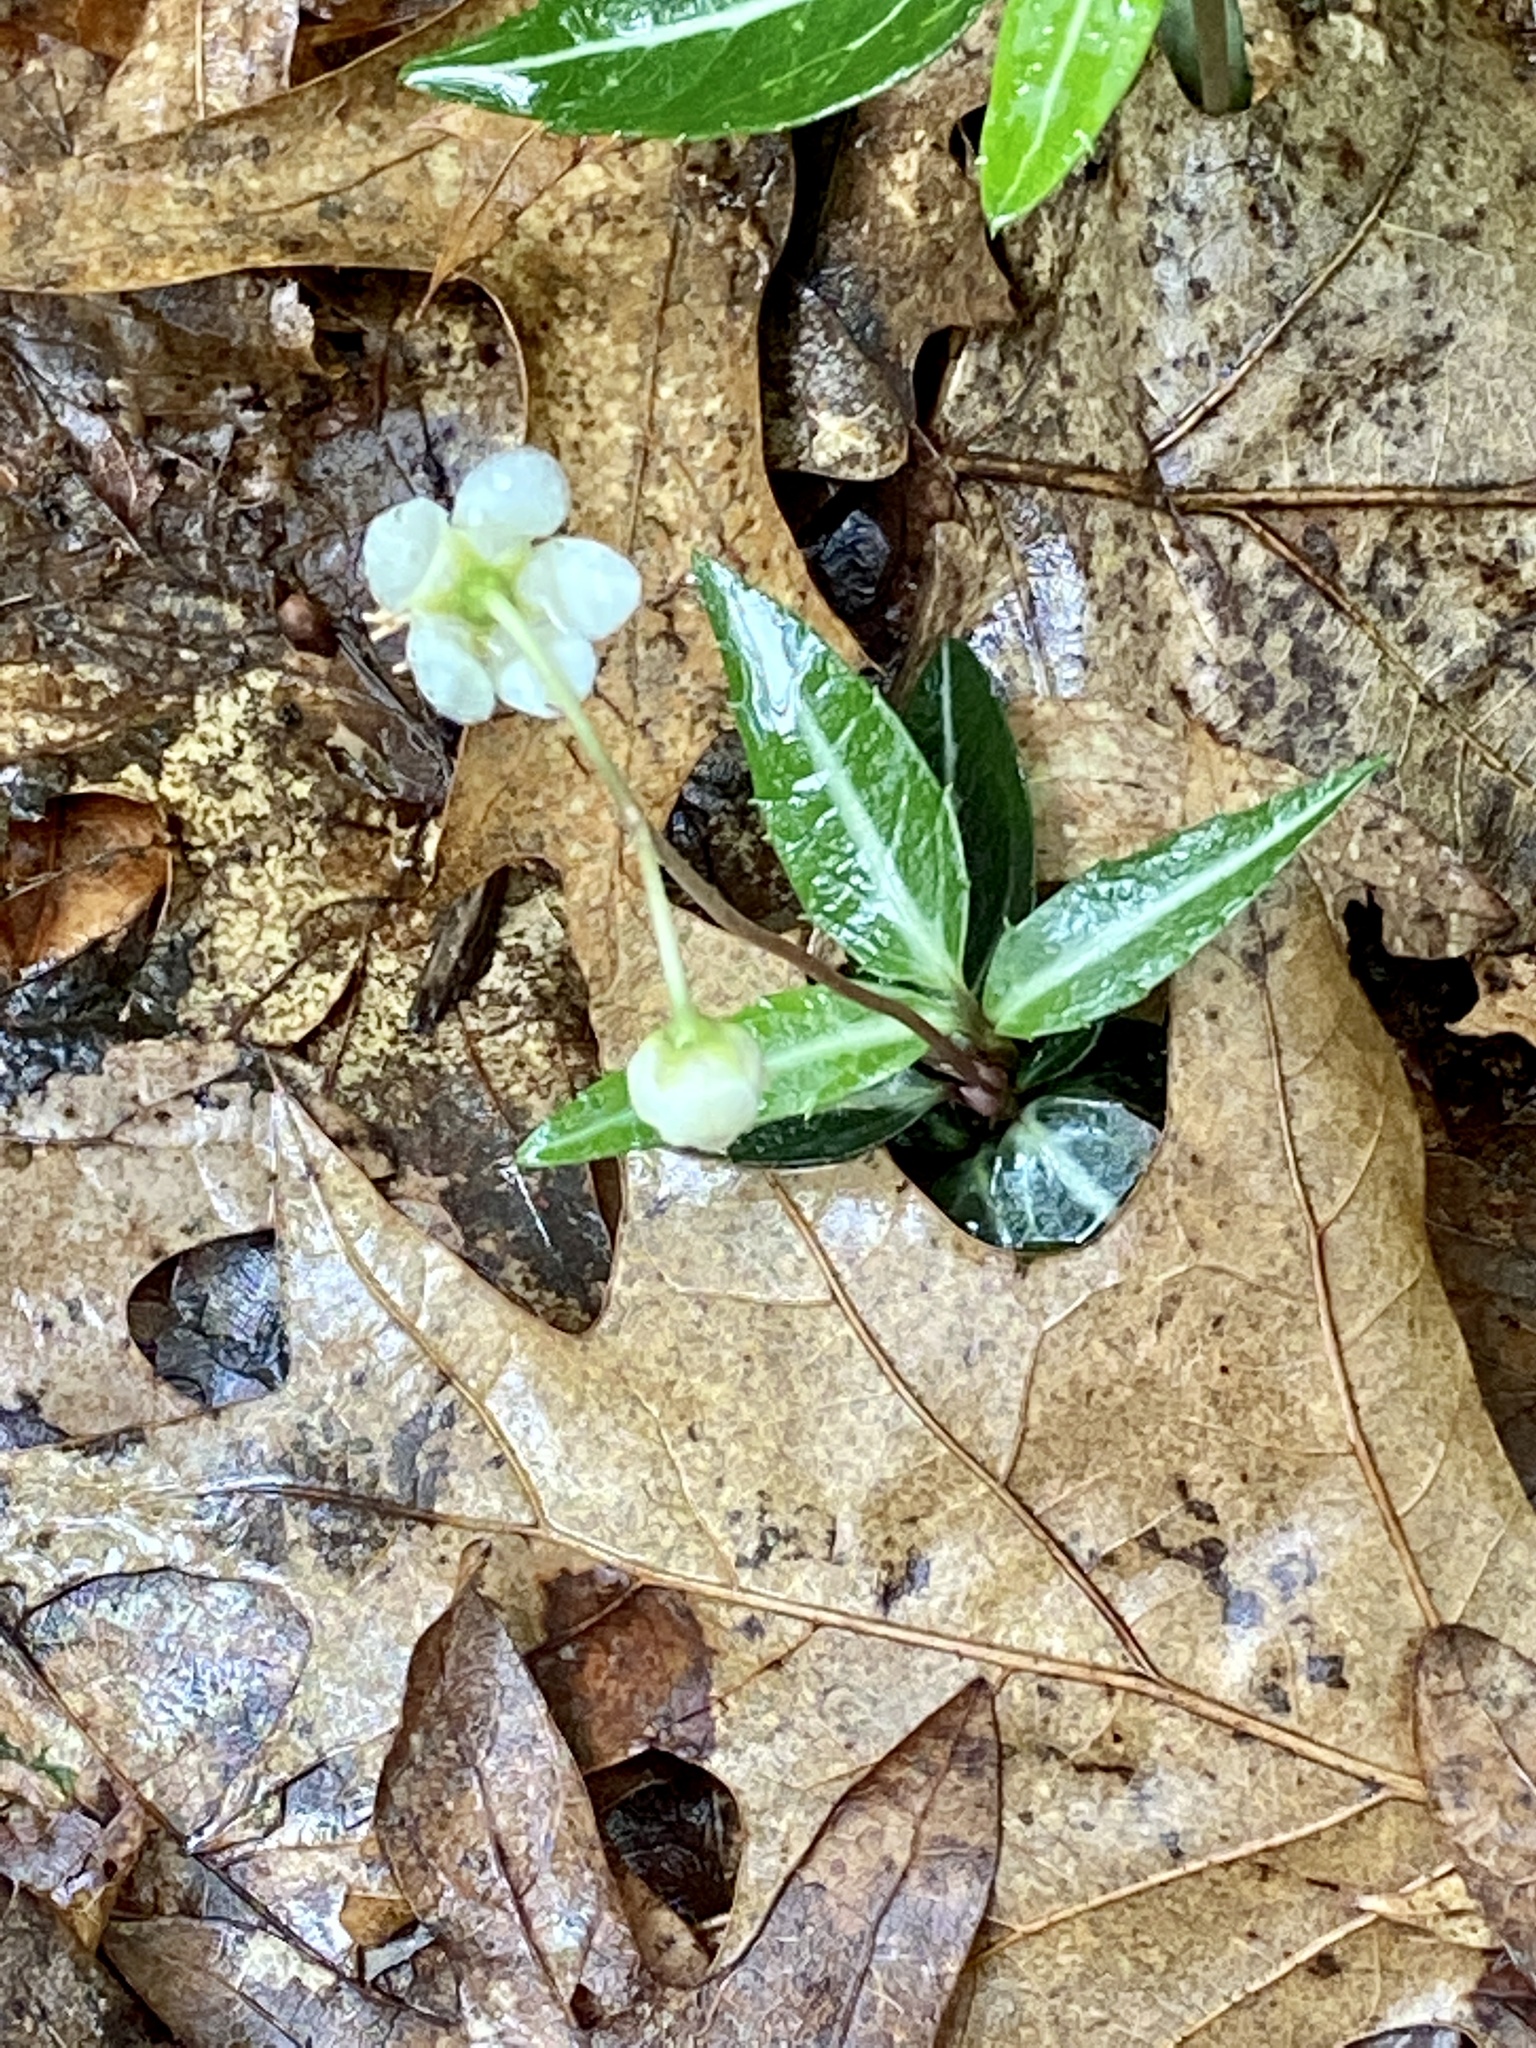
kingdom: Plantae
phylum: Tracheophyta
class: Magnoliopsida
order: Ericales
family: Ericaceae
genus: Chimaphila
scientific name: Chimaphila maculata
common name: Spotted pipsissewa
